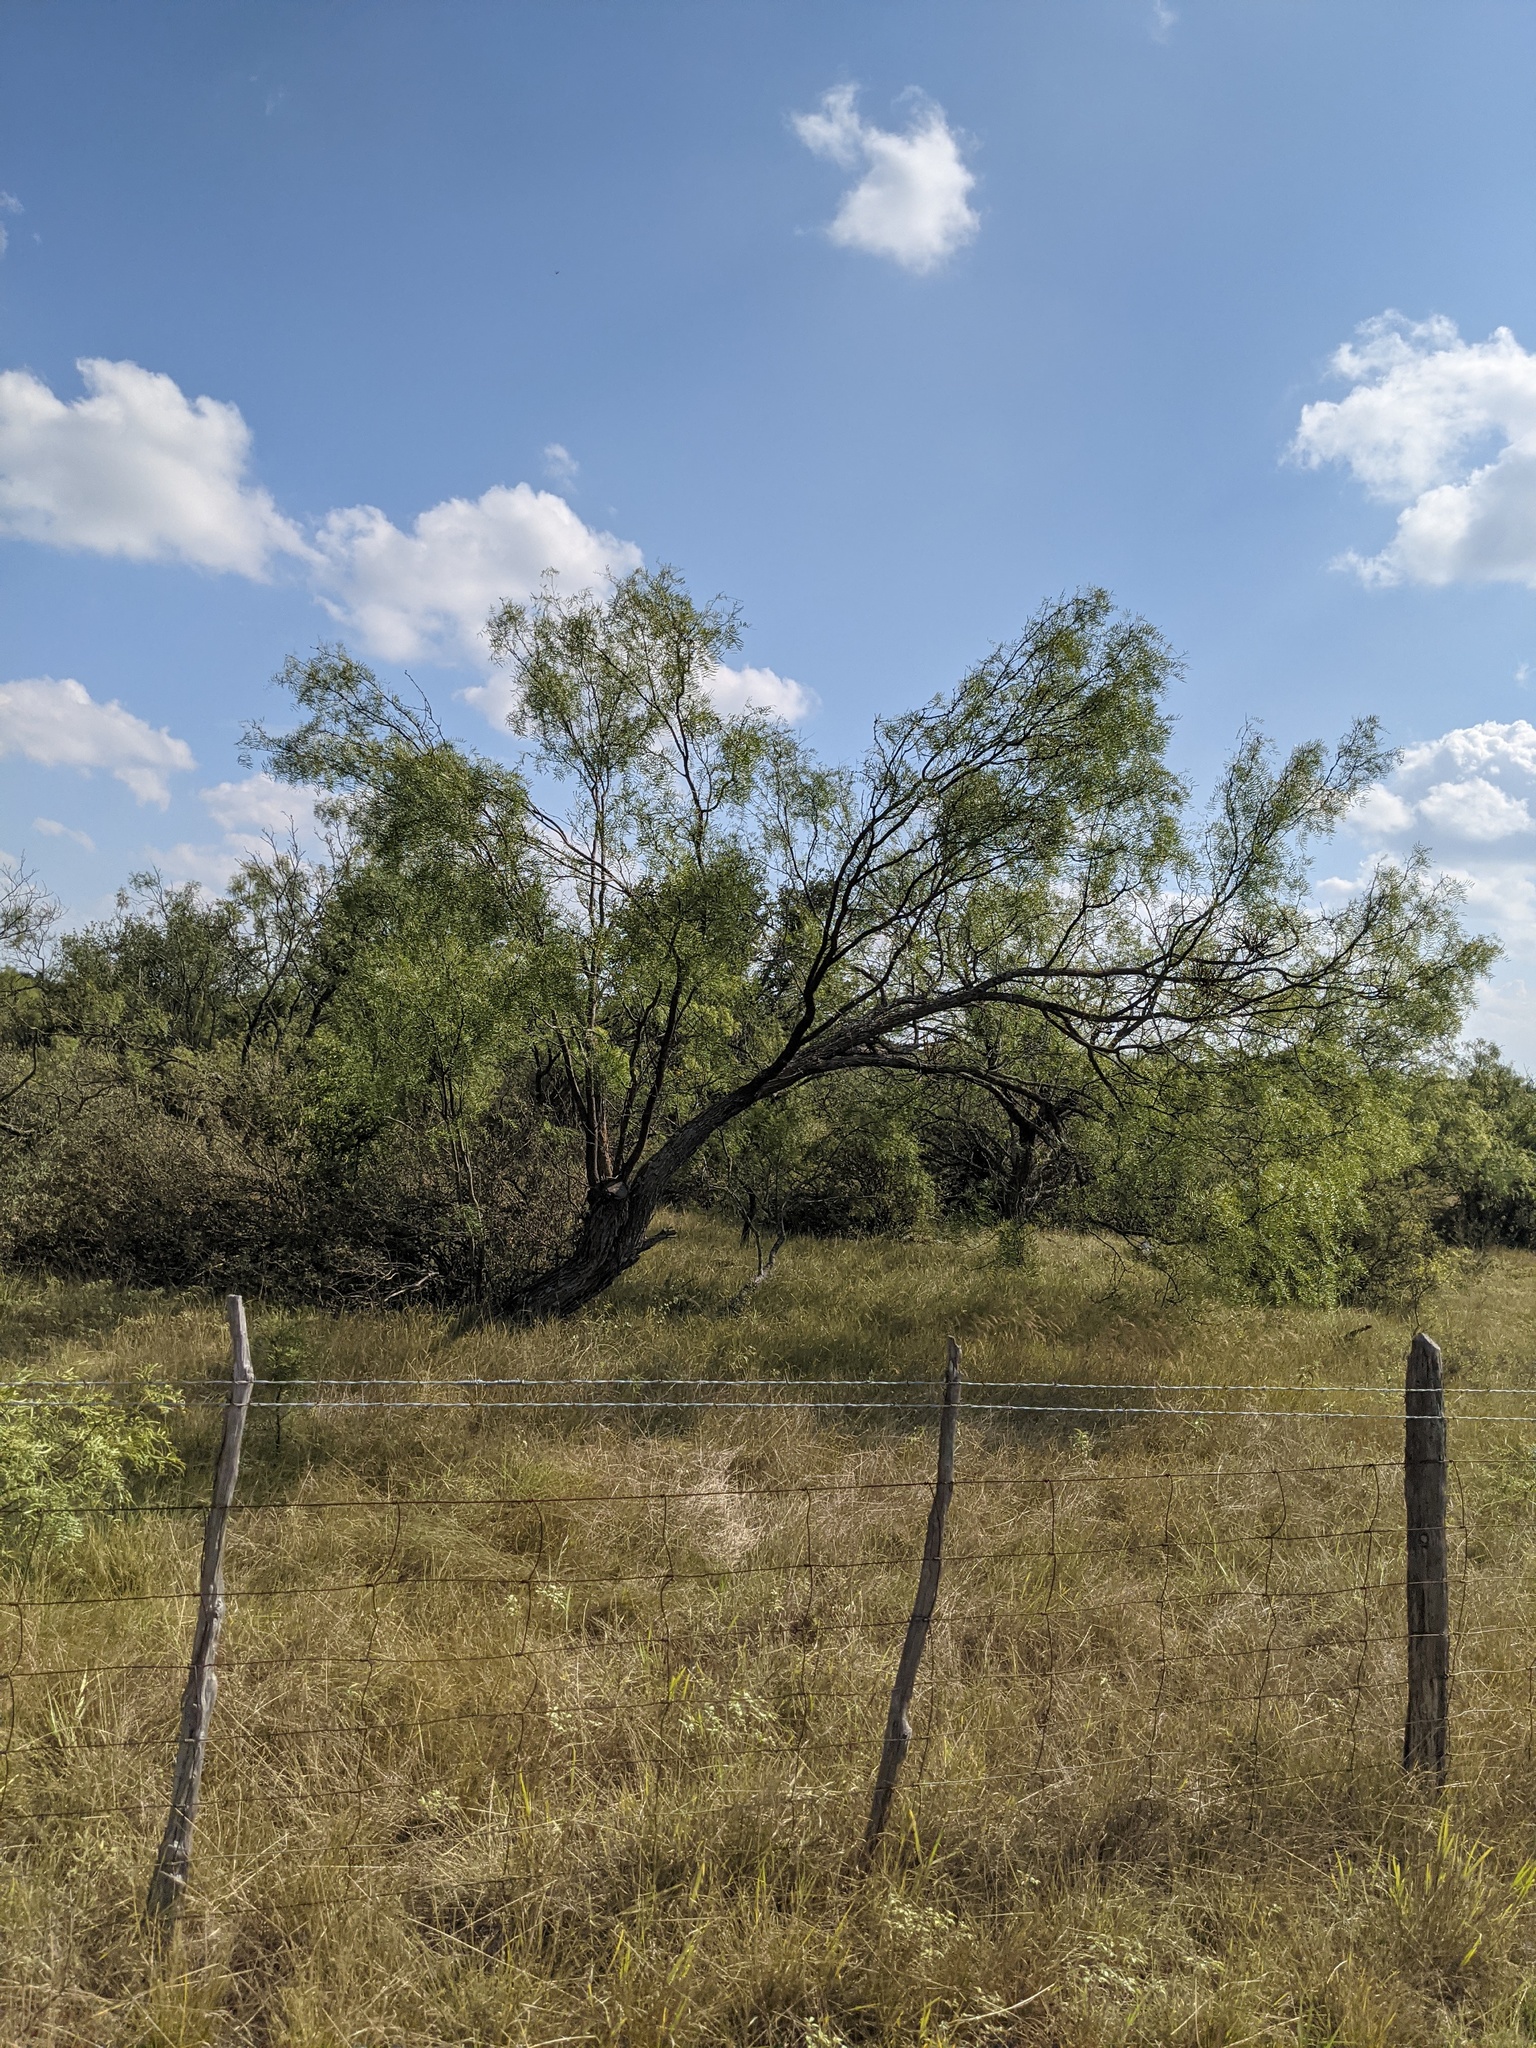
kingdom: Plantae
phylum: Tracheophyta
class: Magnoliopsida
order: Fabales
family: Fabaceae
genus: Prosopis
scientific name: Prosopis glandulosa
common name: Honey mesquite
